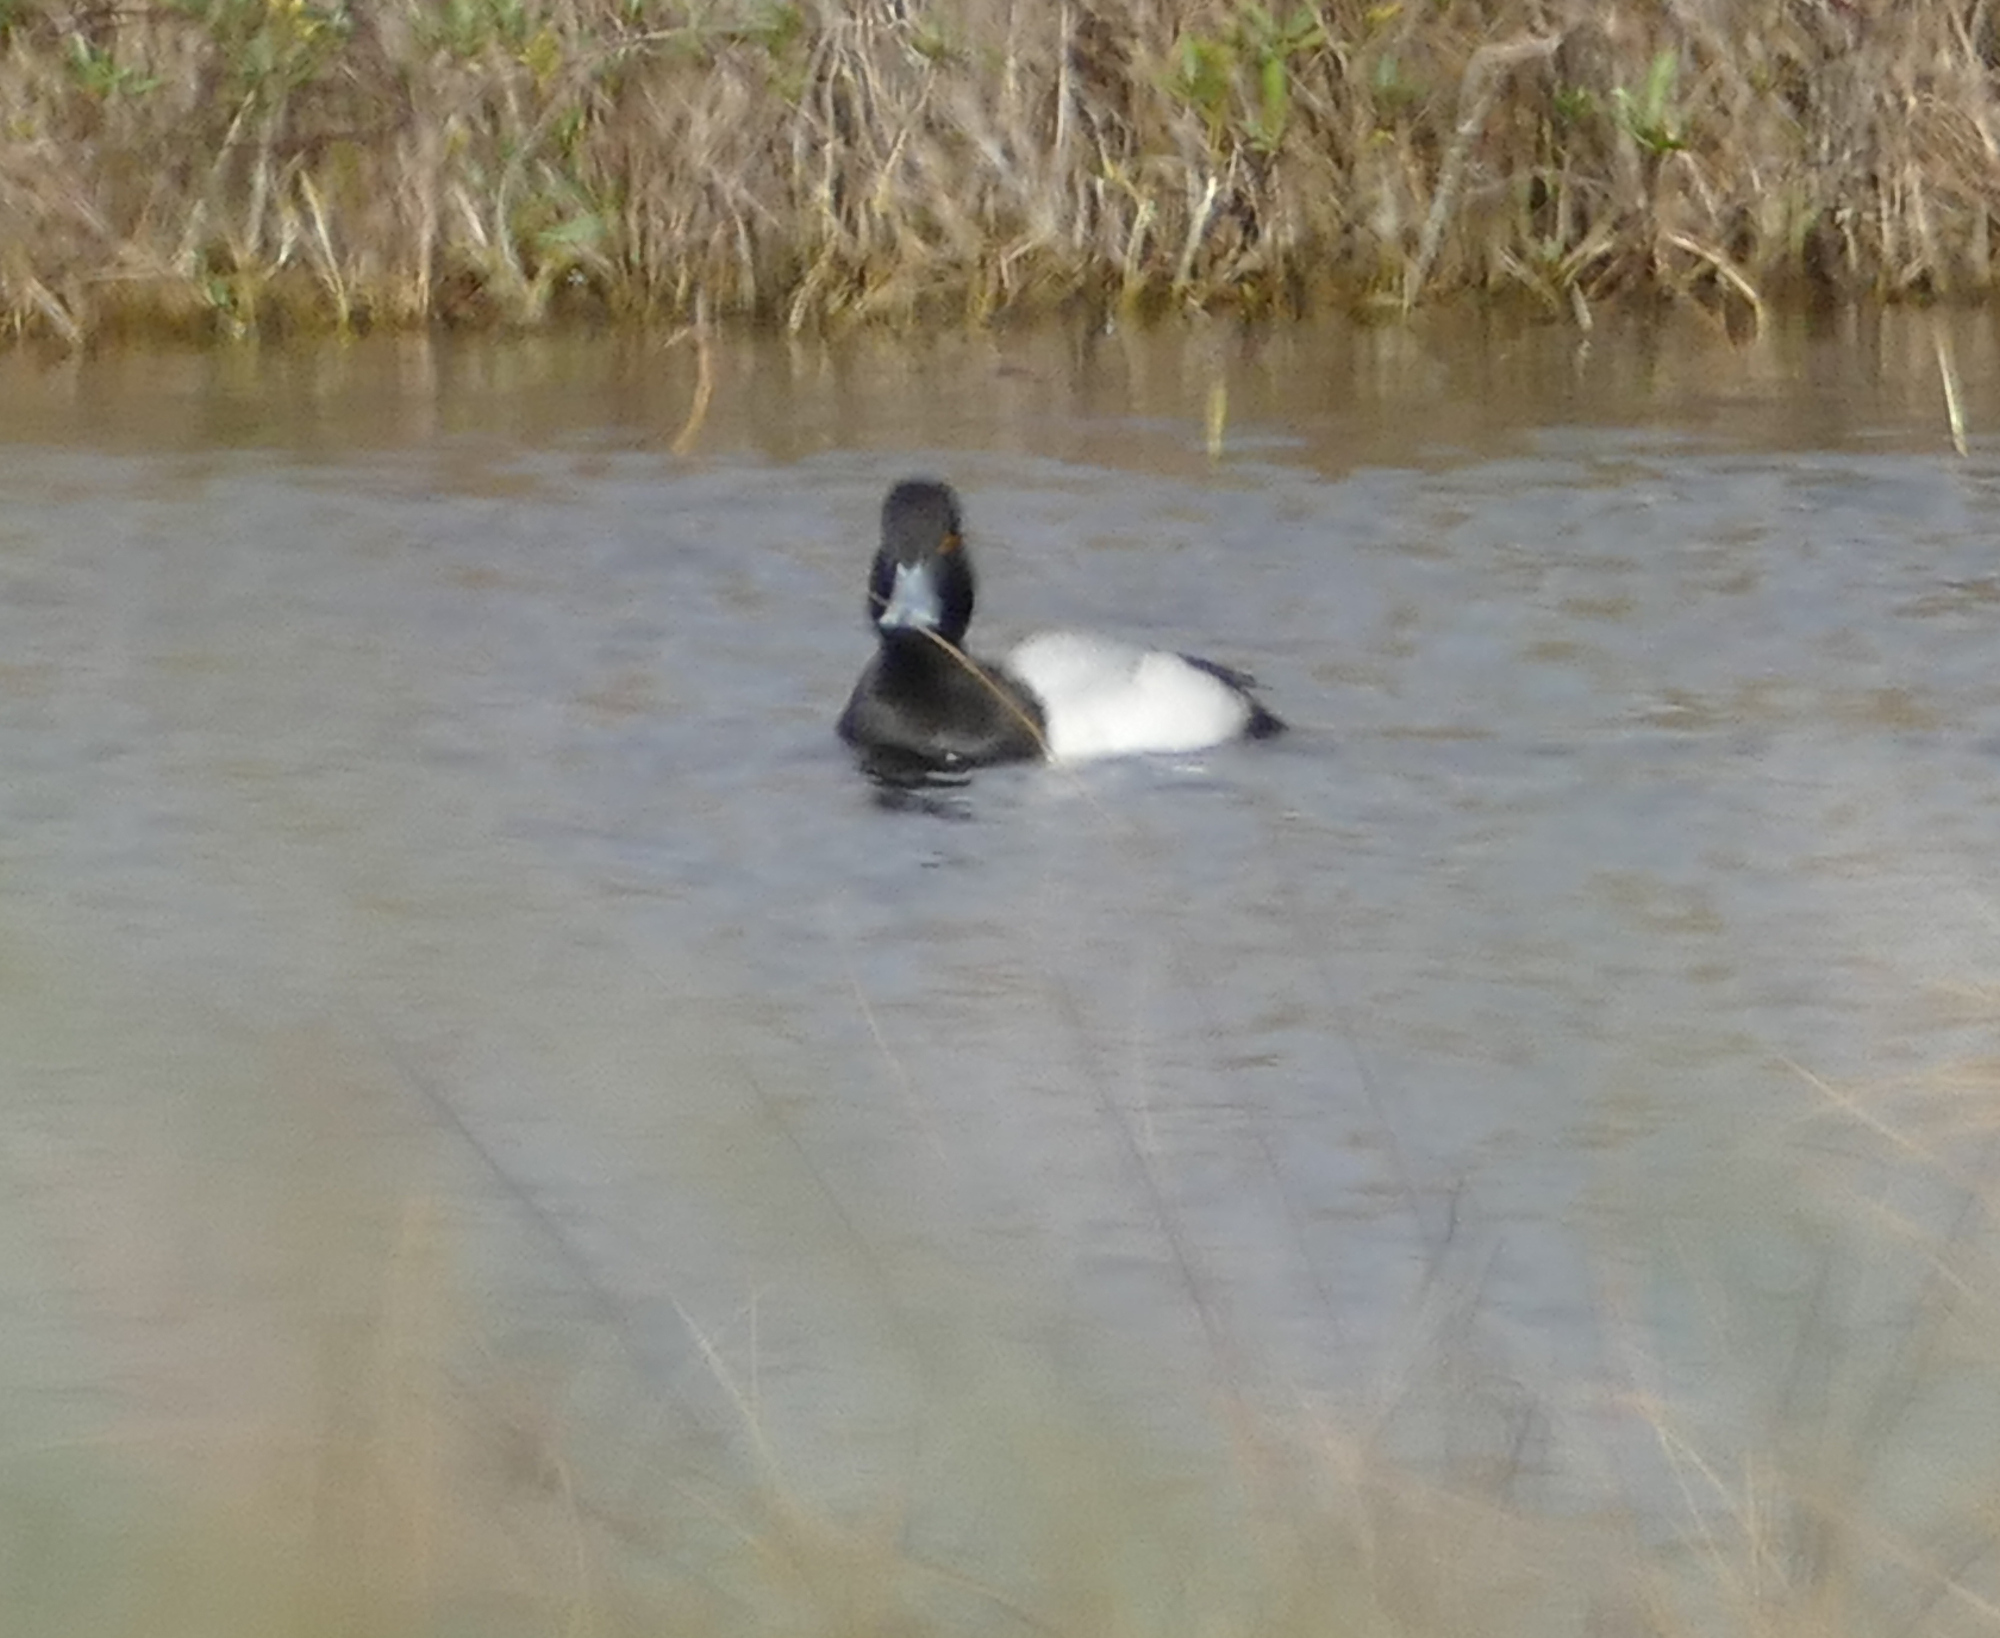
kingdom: Animalia
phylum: Chordata
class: Aves
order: Anseriformes
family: Anatidae
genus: Aythya
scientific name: Aythya affinis
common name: Lesser scaup
